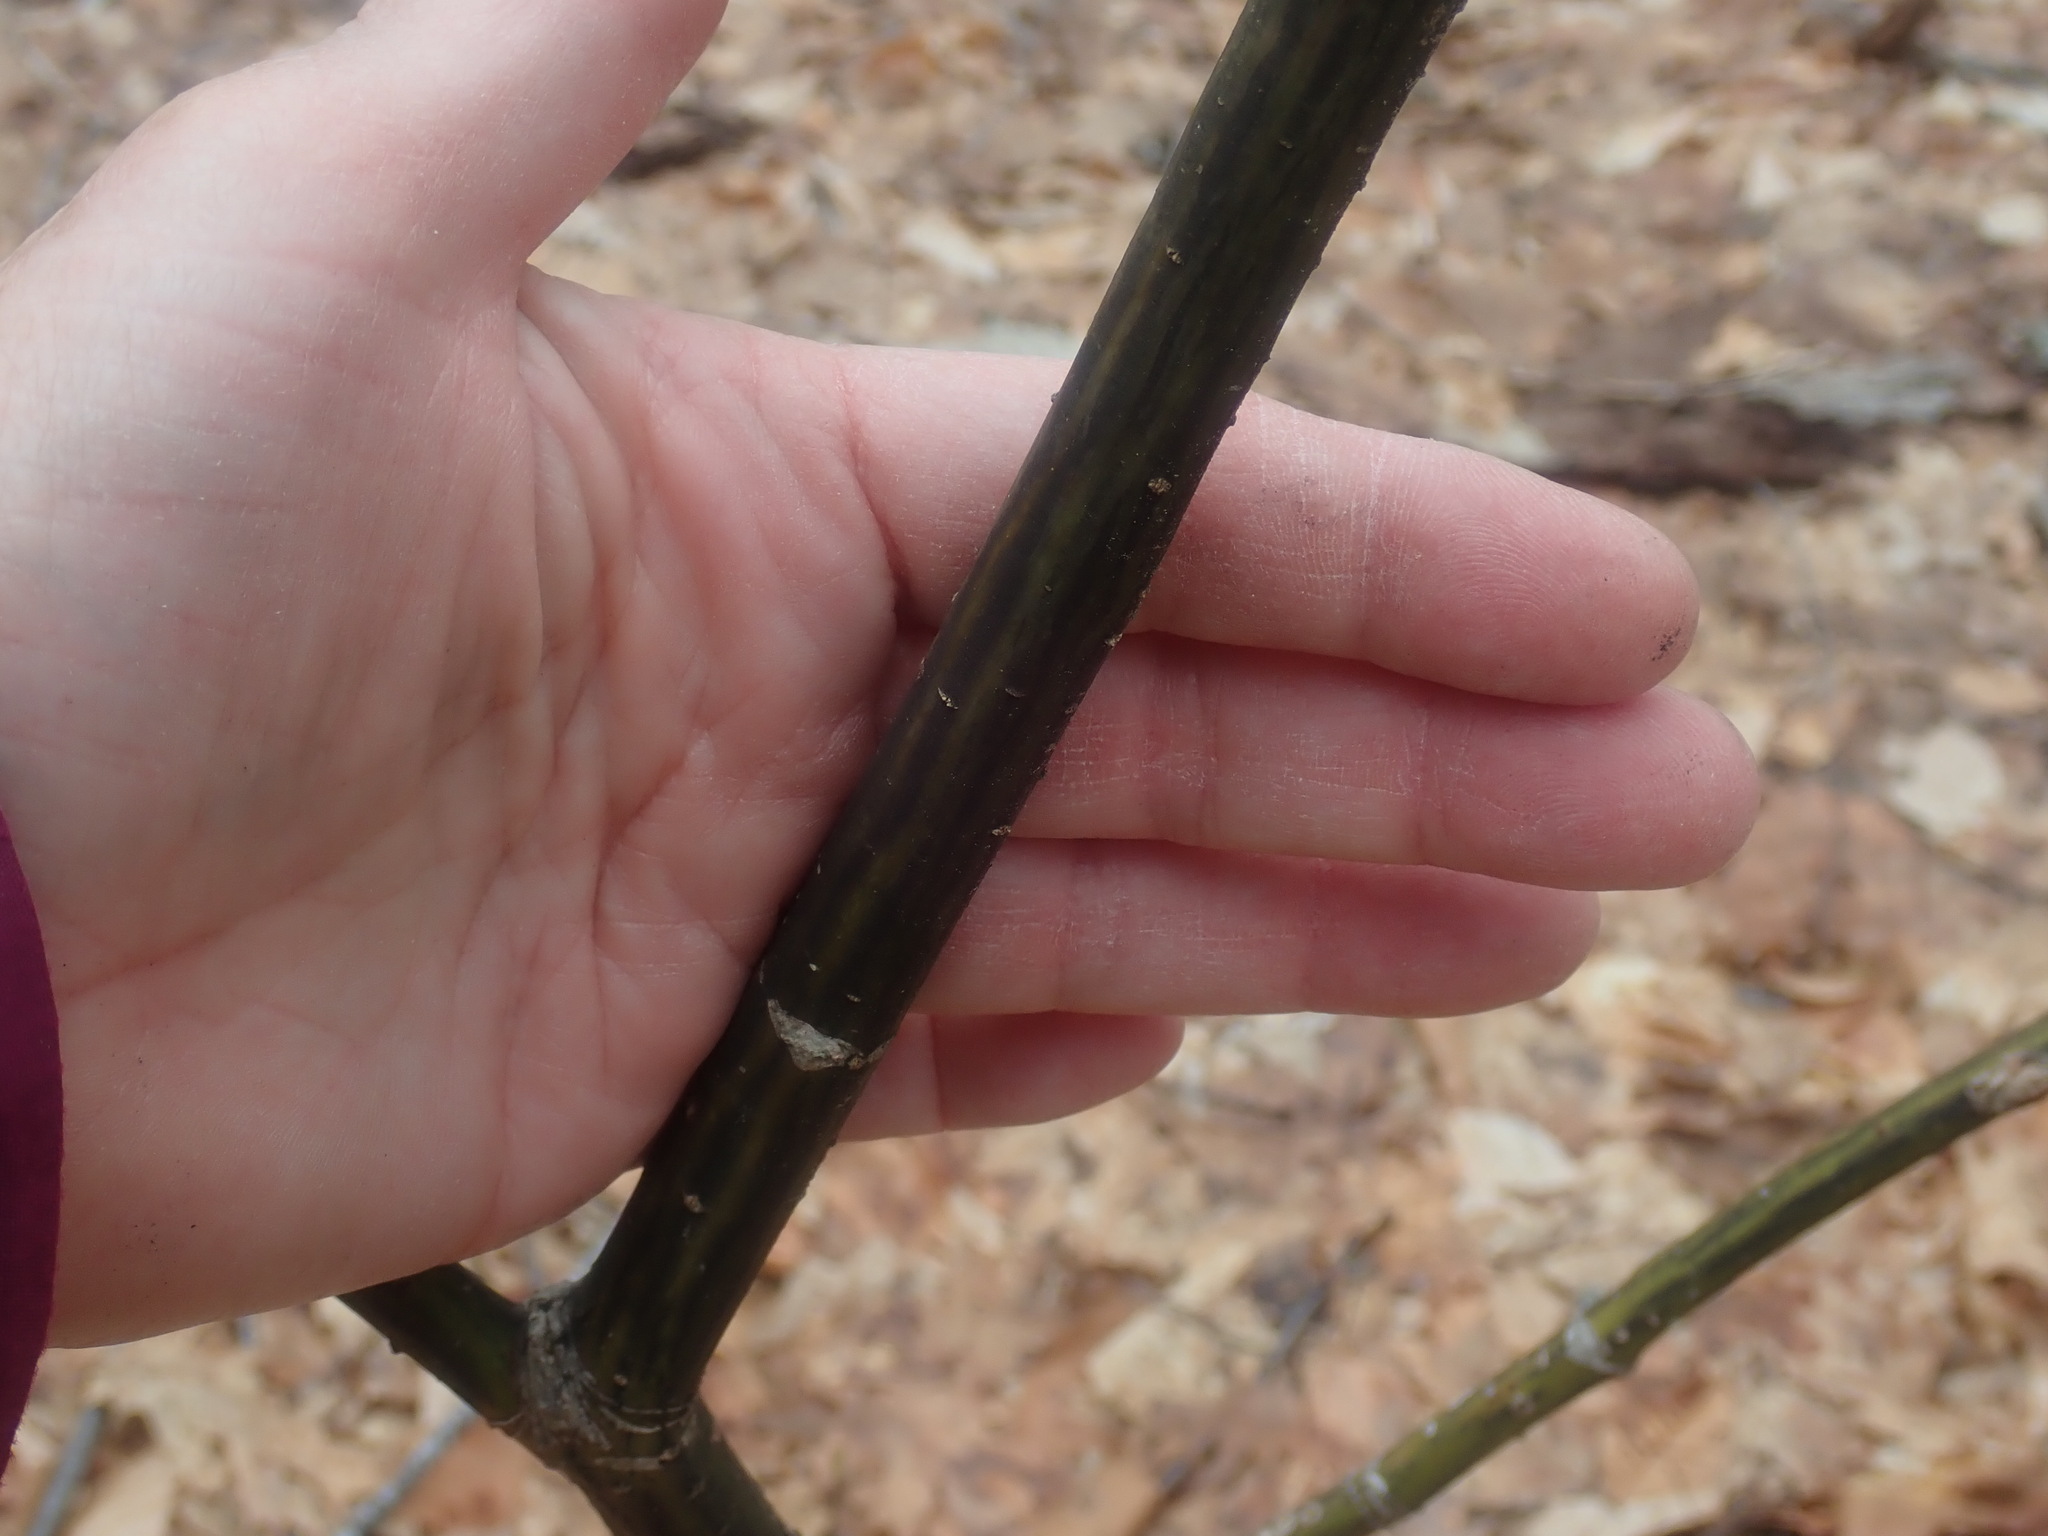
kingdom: Plantae
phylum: Tracheophyta
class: Magnoliopsida
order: Sapindales
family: Sapindaceae
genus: Acer
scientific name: Acer pensylvanicum
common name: Moosewood
